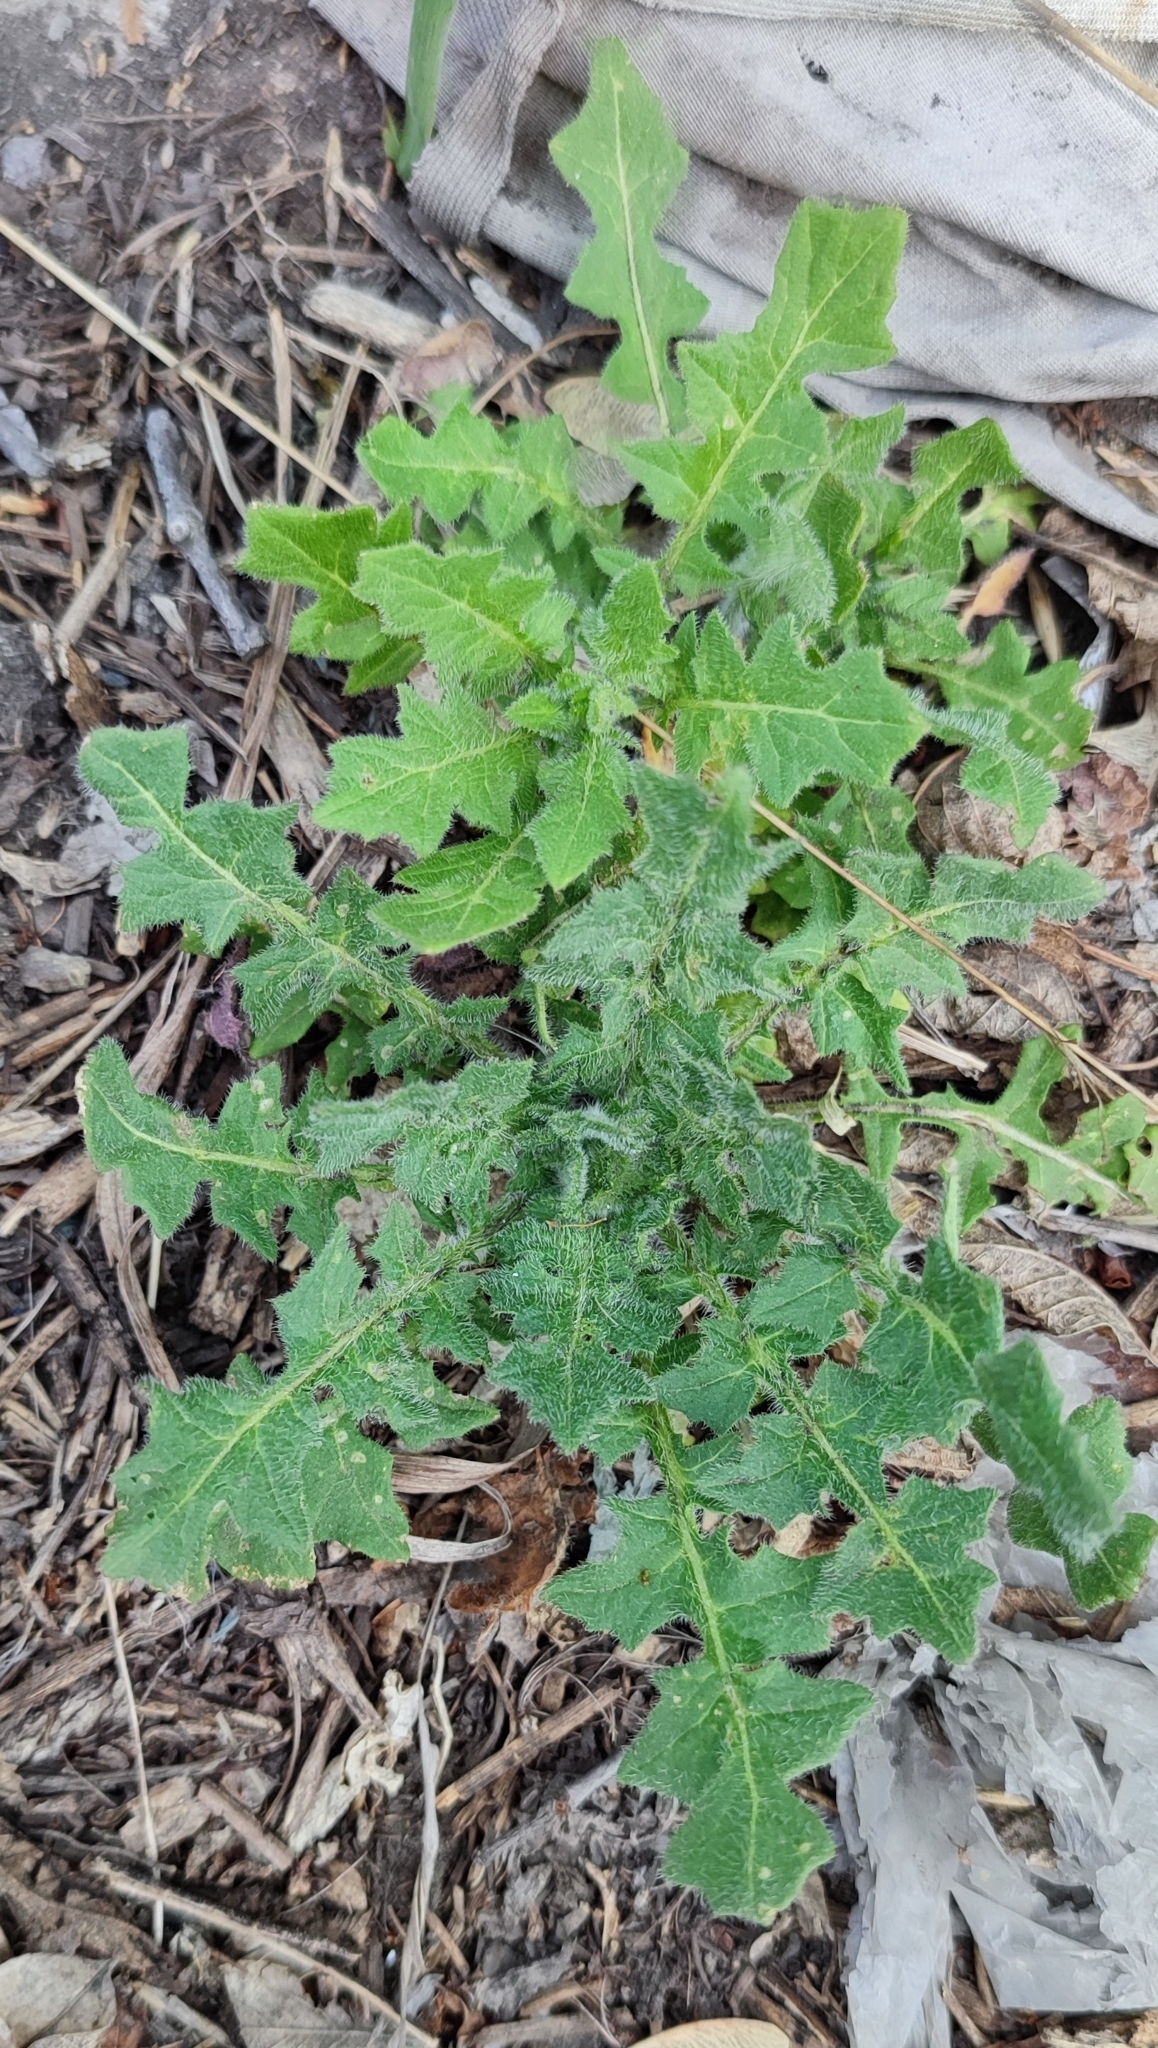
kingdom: Plantae
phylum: Tracheophyta
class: Magnoliopsida
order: Brassicales
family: Brassicaceae
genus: Sisymbrium
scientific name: Sisymbrium loeselii
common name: False london-rocket
